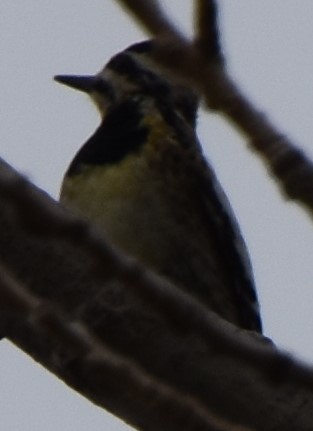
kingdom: Animalia
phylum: Chordata
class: Aves
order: Piciformes
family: Picidae
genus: Sphyrapicus
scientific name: Sphyrapicus varius
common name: Yellow-bellied sapsucker
